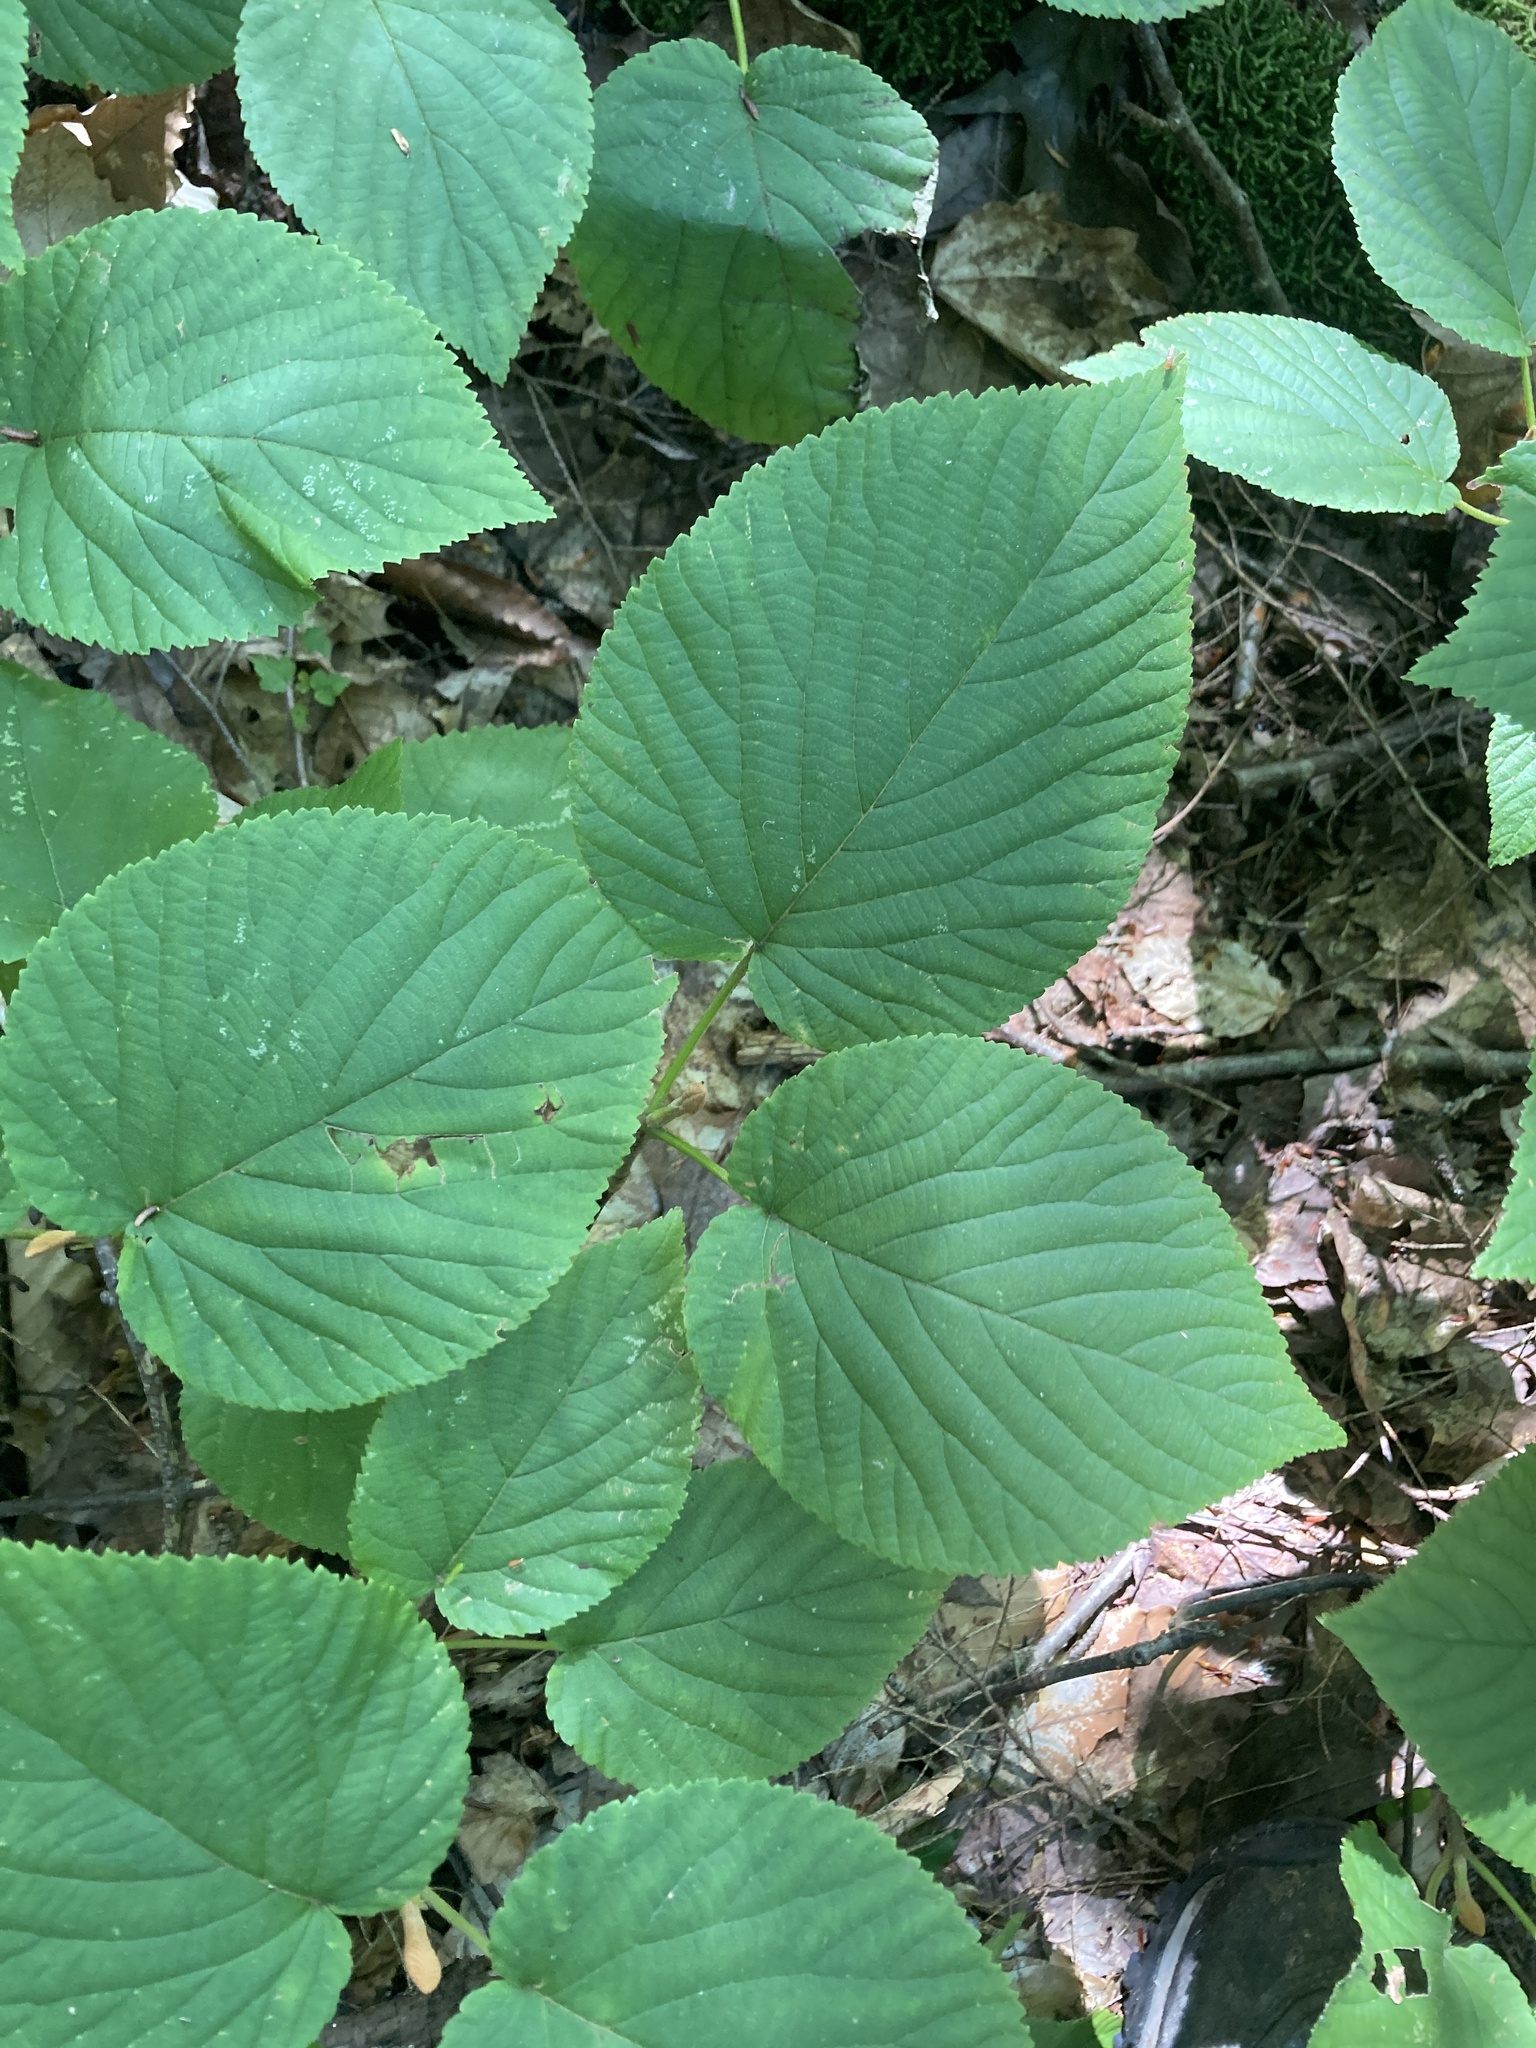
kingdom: Plantae
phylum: Tracheophyta
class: Magnoliopsida
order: Dipsacales
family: Viburnaceae
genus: Viburnum
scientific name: Viburnum lantanoides
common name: Hobblebush
